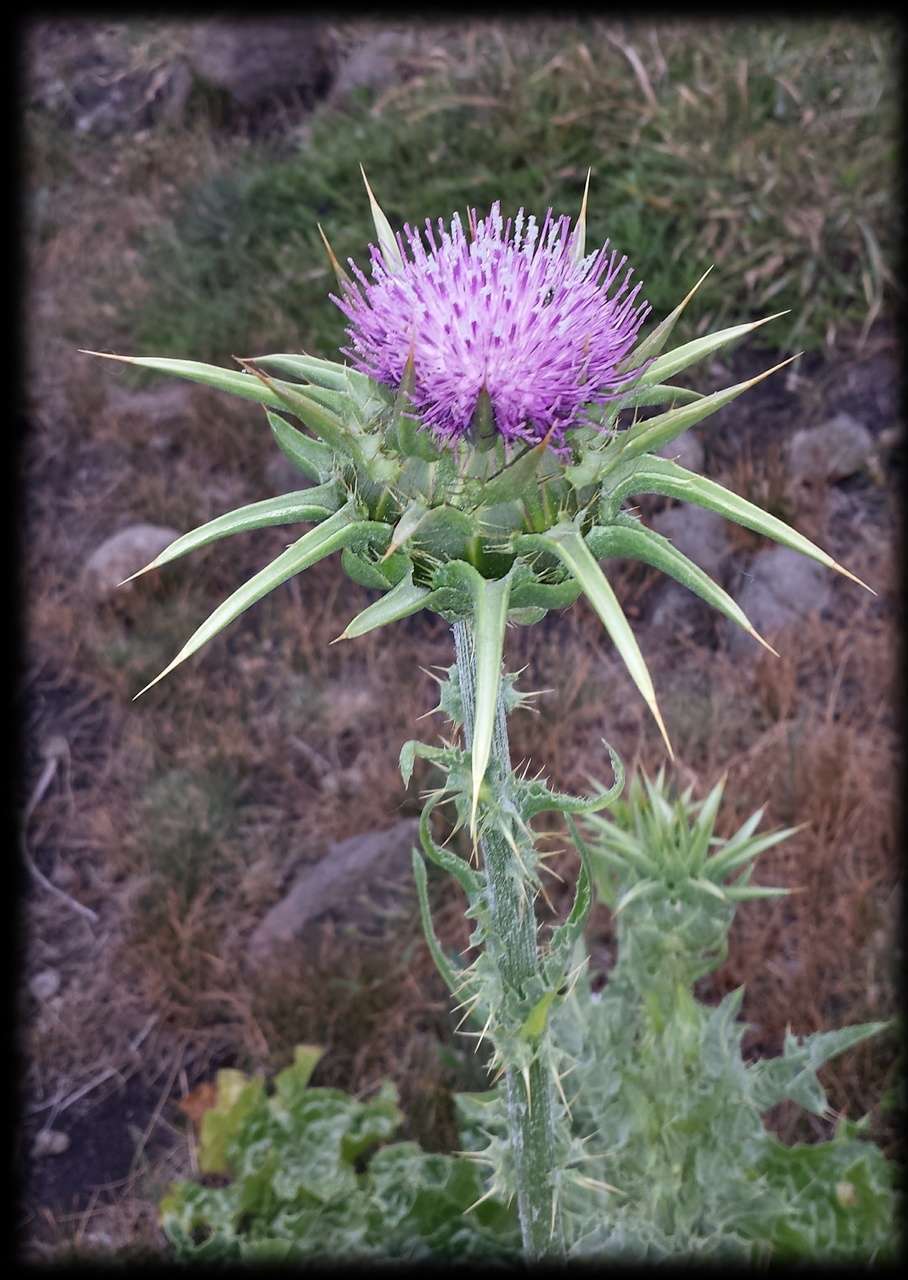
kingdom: Plantae
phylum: Tracheophyta
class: Magnoliopsida
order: Asterales
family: Asteraceae
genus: Silybum
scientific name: Silybum marianum
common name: Milk thistle
